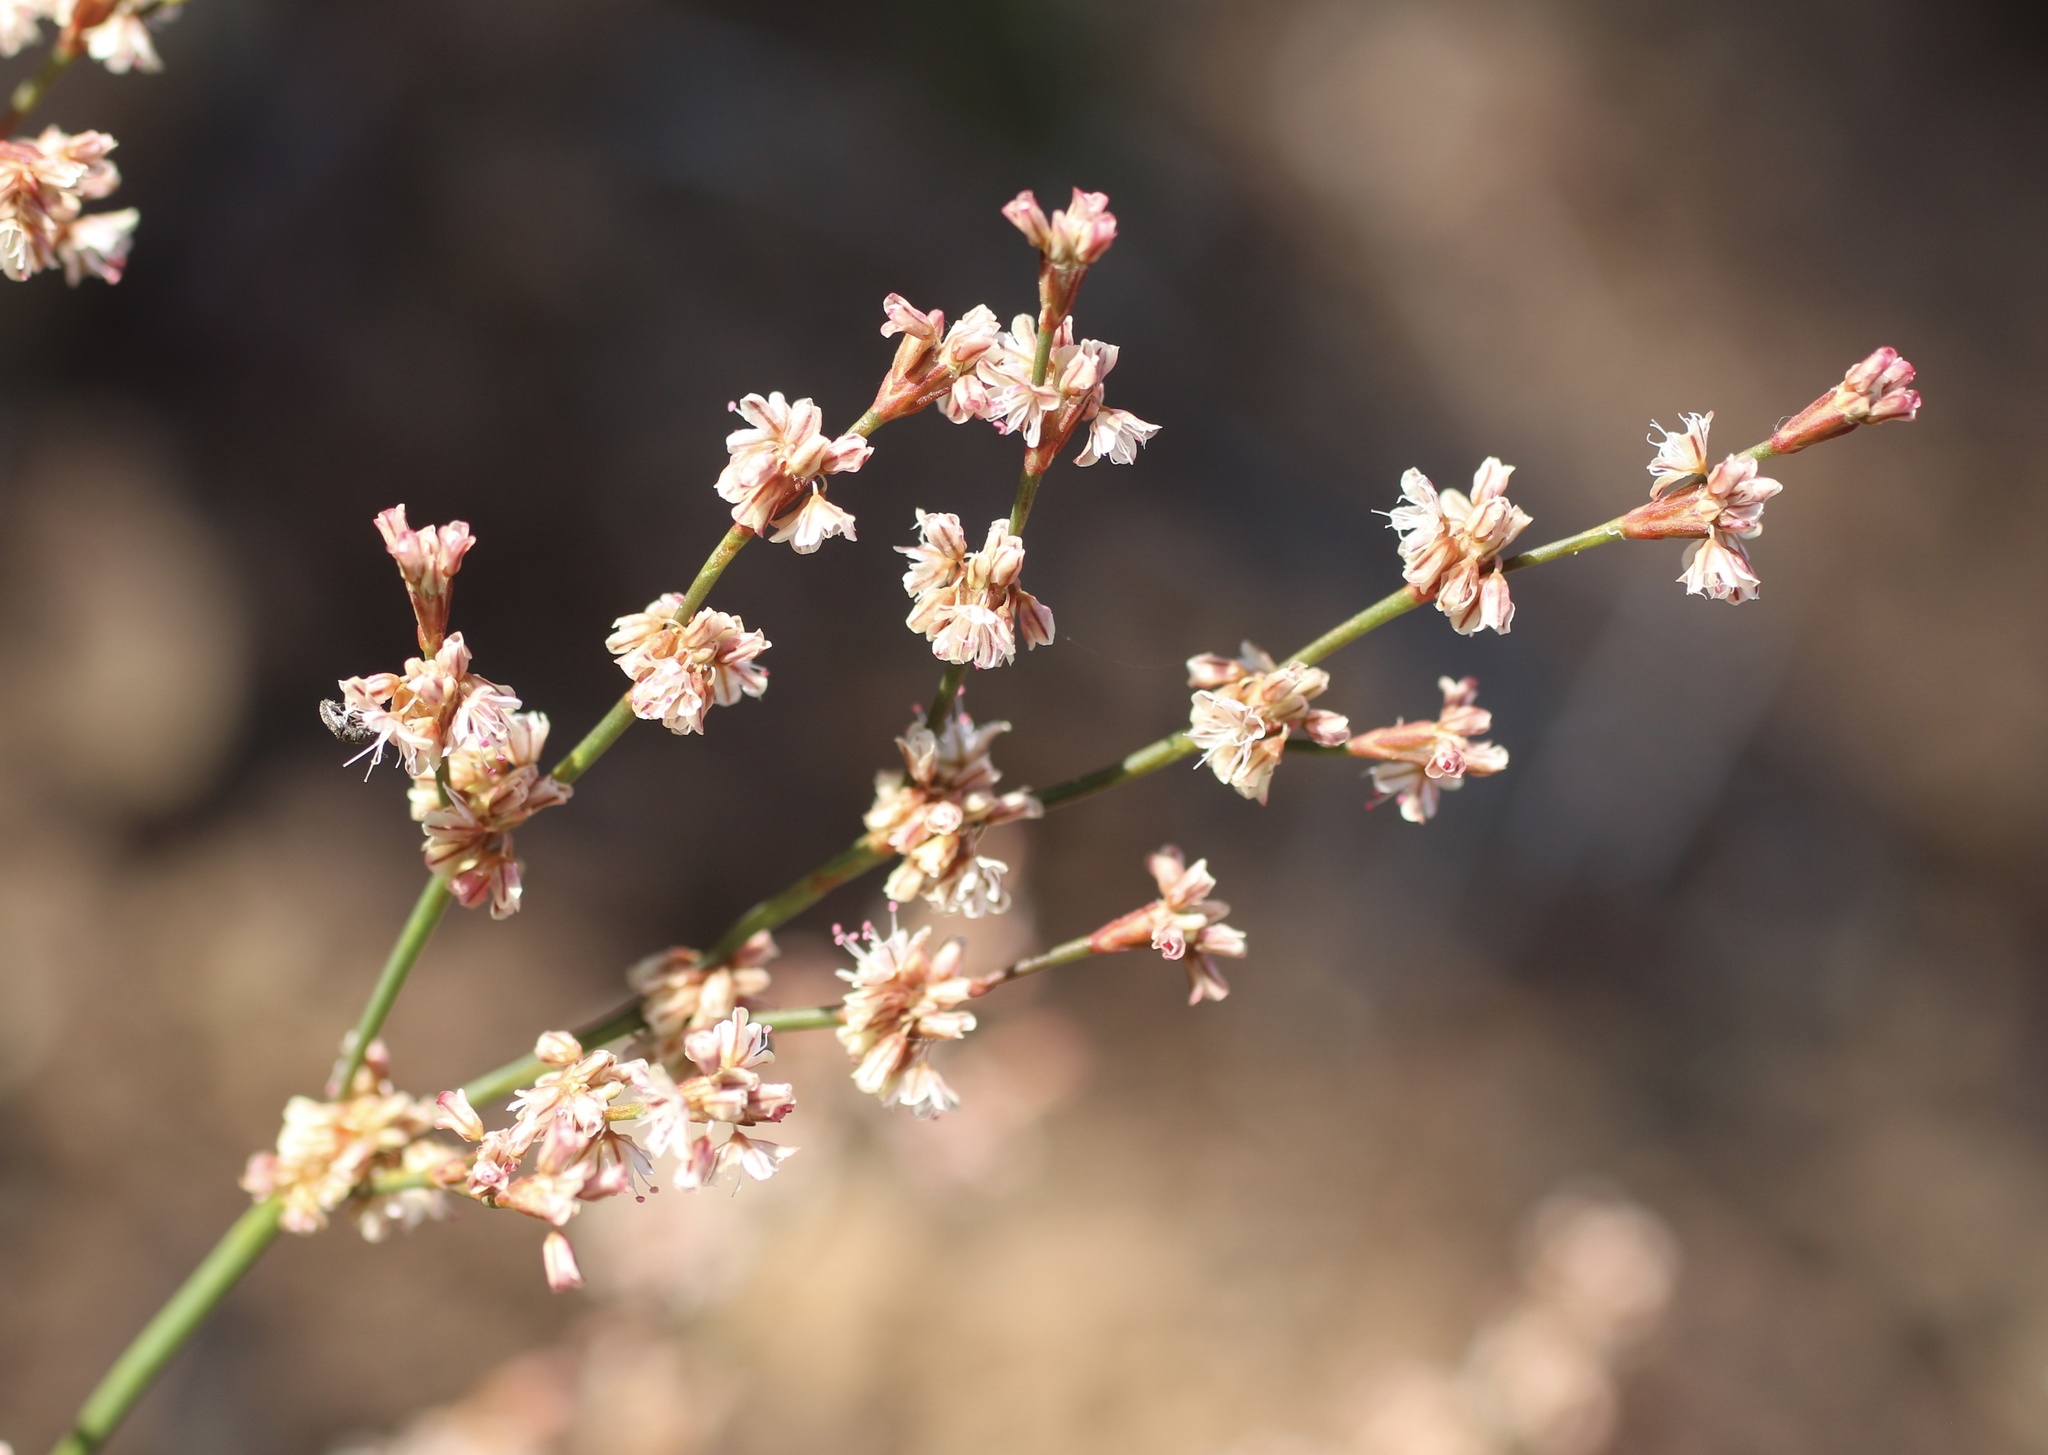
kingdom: Plantae
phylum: Tracheophyta
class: Magnoliopsida
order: Caryophyllales
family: Polygonaceae
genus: Eriogonum
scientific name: Eriogonum luteolum
